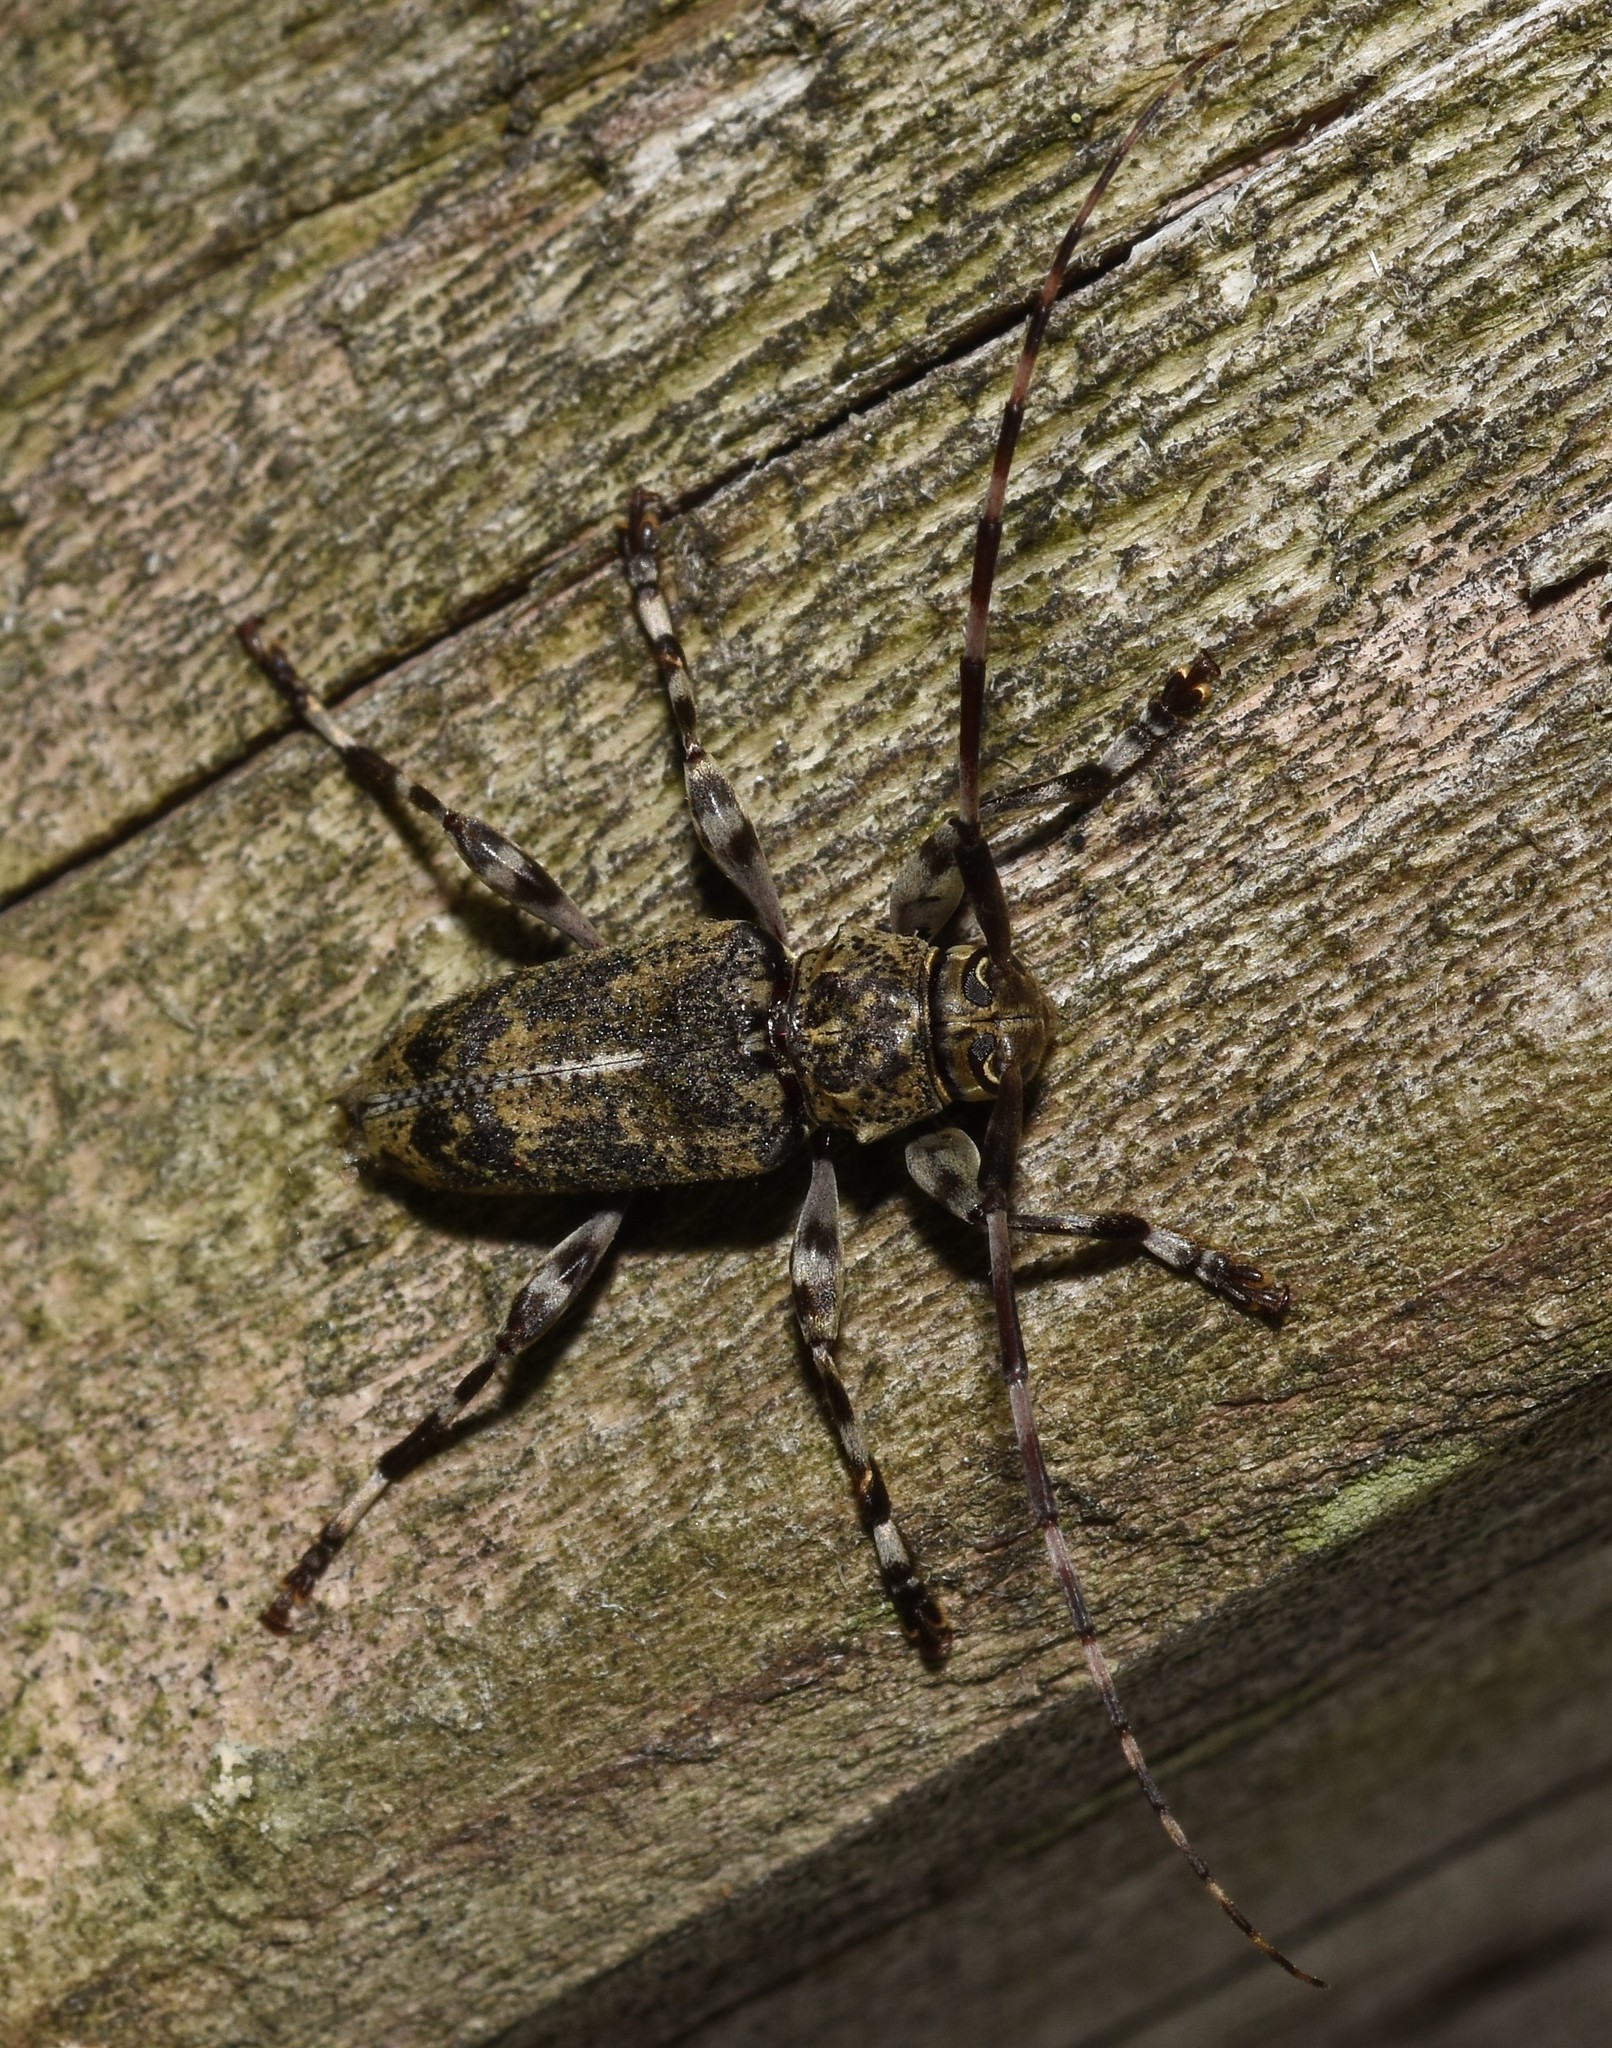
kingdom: Animalia
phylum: Arthropoda
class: Insecta
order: Coleoptera
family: Cerambycidae
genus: Graphisurus
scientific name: Graphisurus fasciatus
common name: Banded graphisurus
